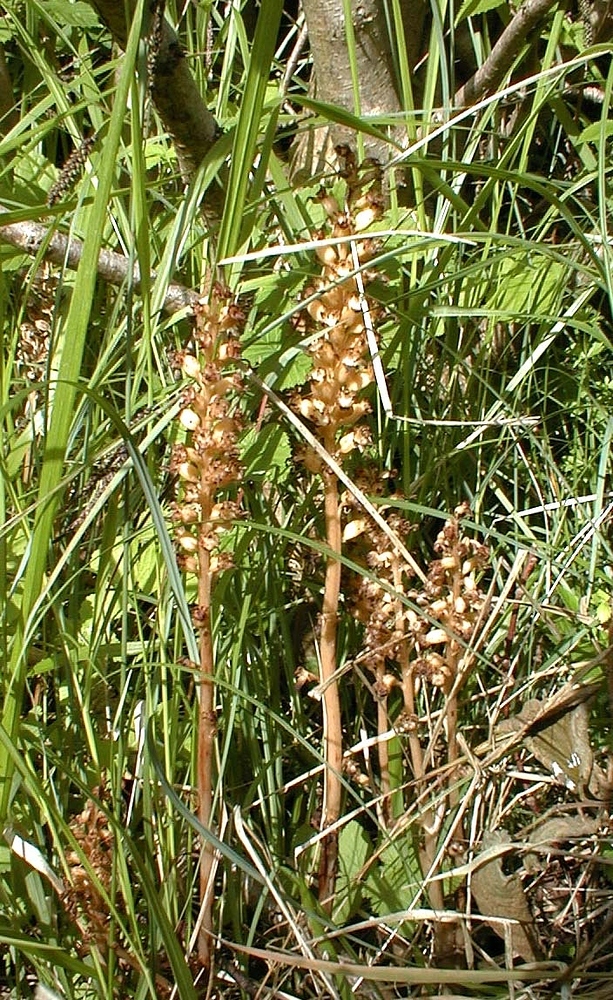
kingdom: Plantae
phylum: Tracheophyta
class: Liliopsida
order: Asparagales
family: Orchidaceae
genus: Neottia
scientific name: Neottia nidus-avis
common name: Bird's-nest orchid
